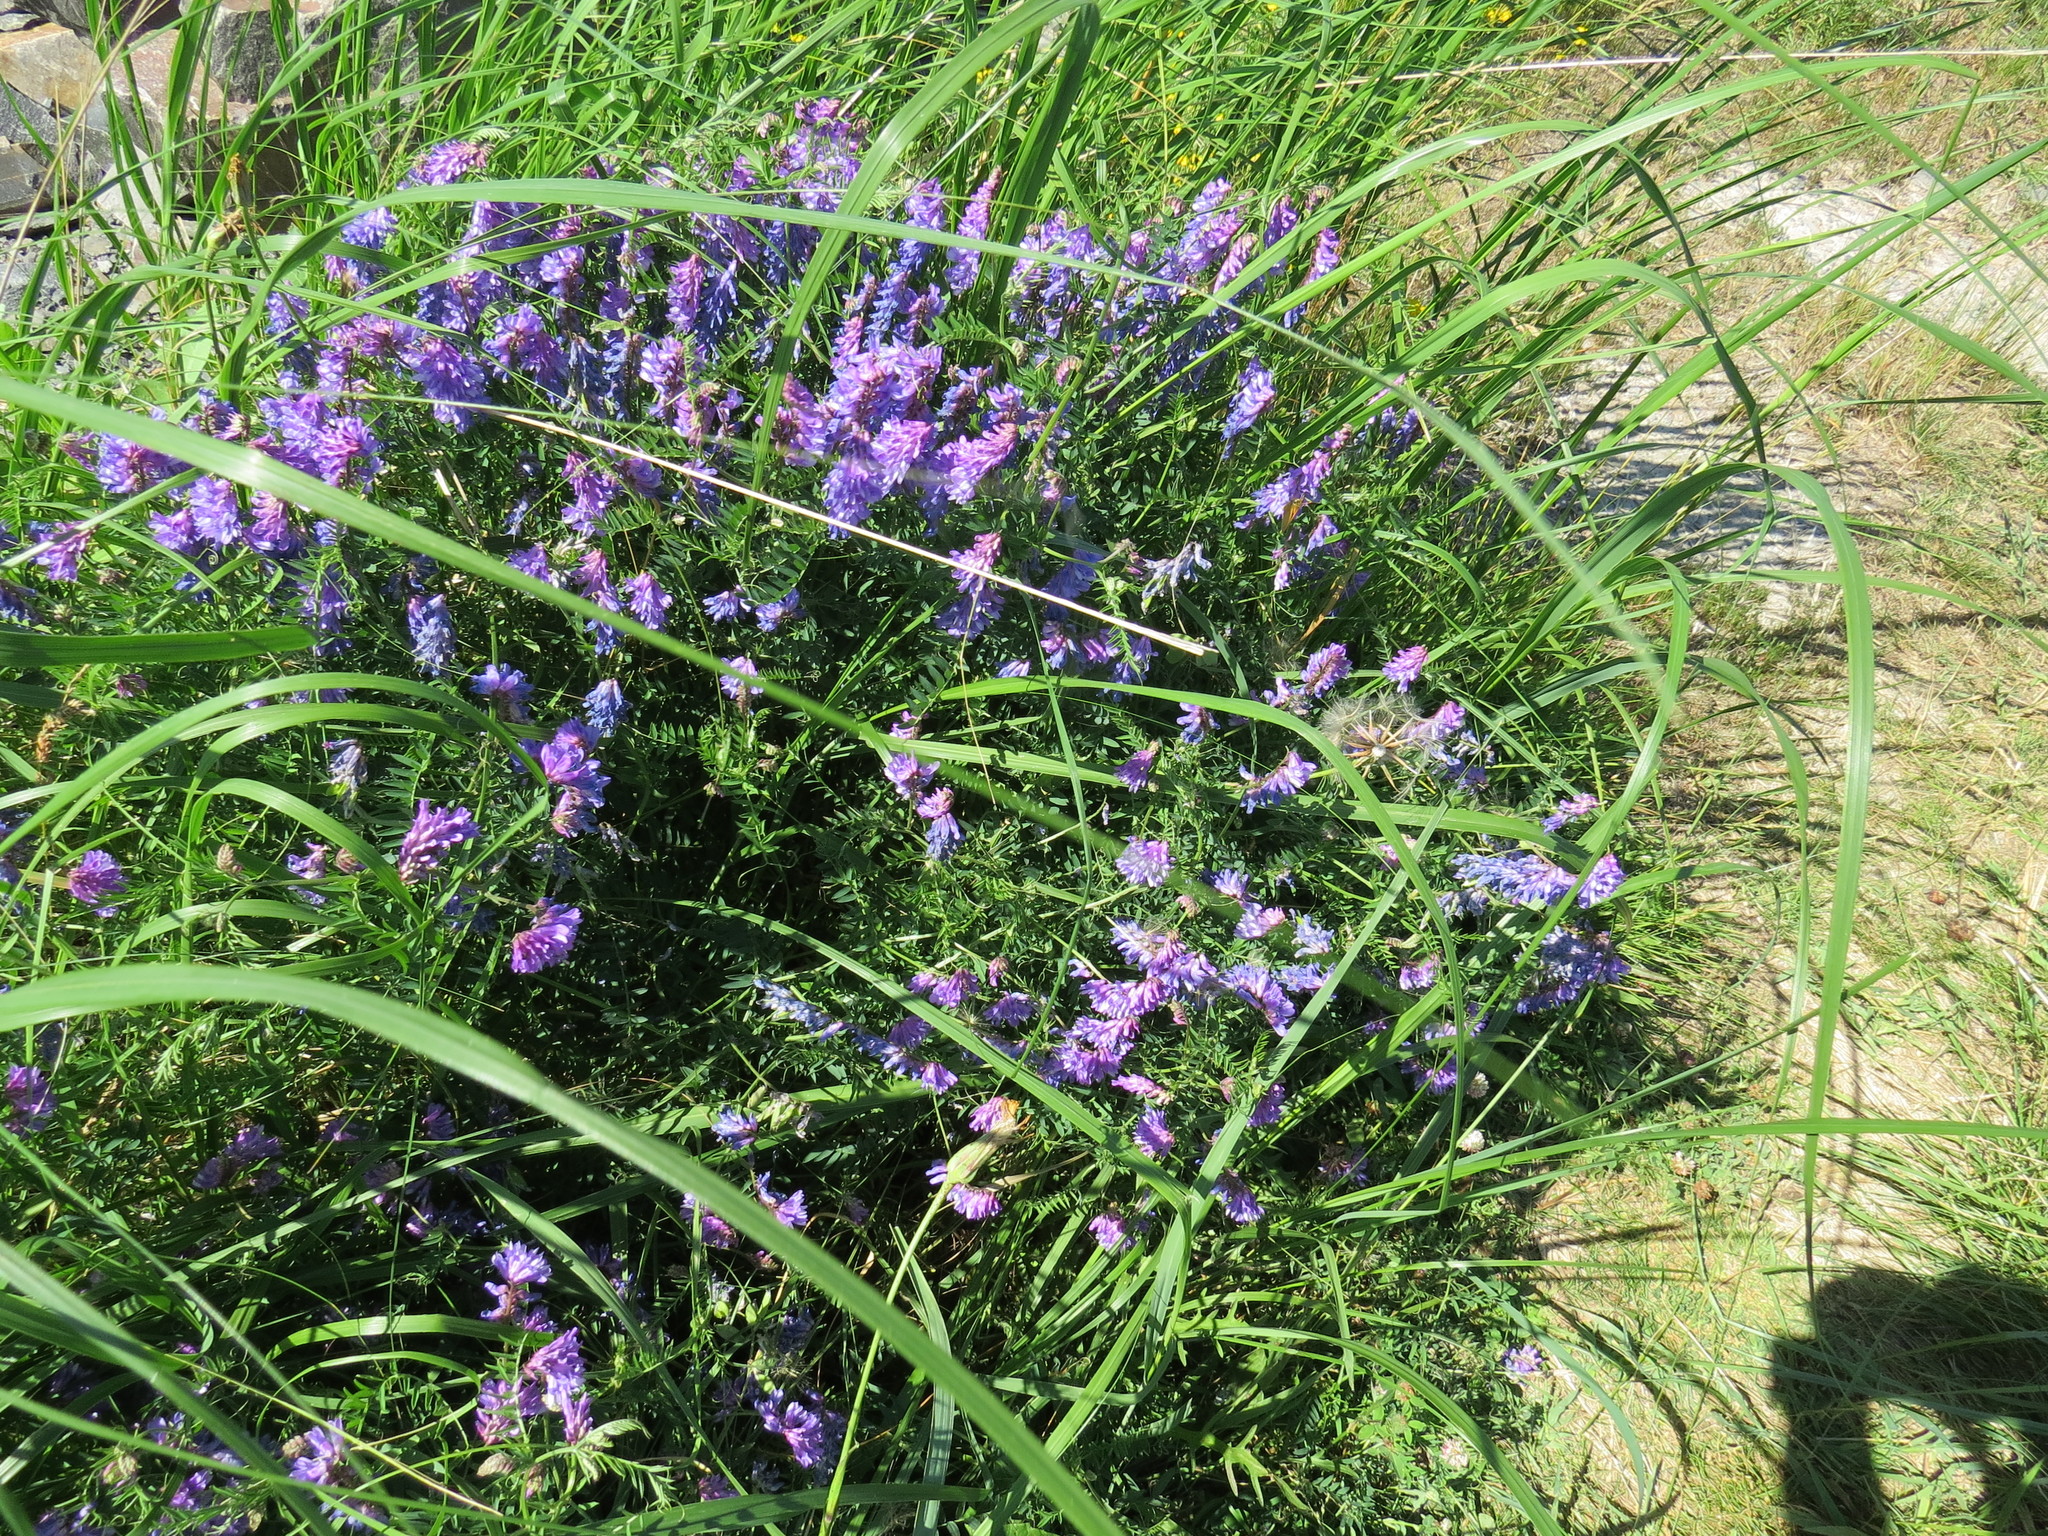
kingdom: Plantae
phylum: Tracheophyta
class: Magnoliopsida
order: Fabales
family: Fabaceae
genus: Vicia
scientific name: Vicia cracca
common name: Bird vetch
